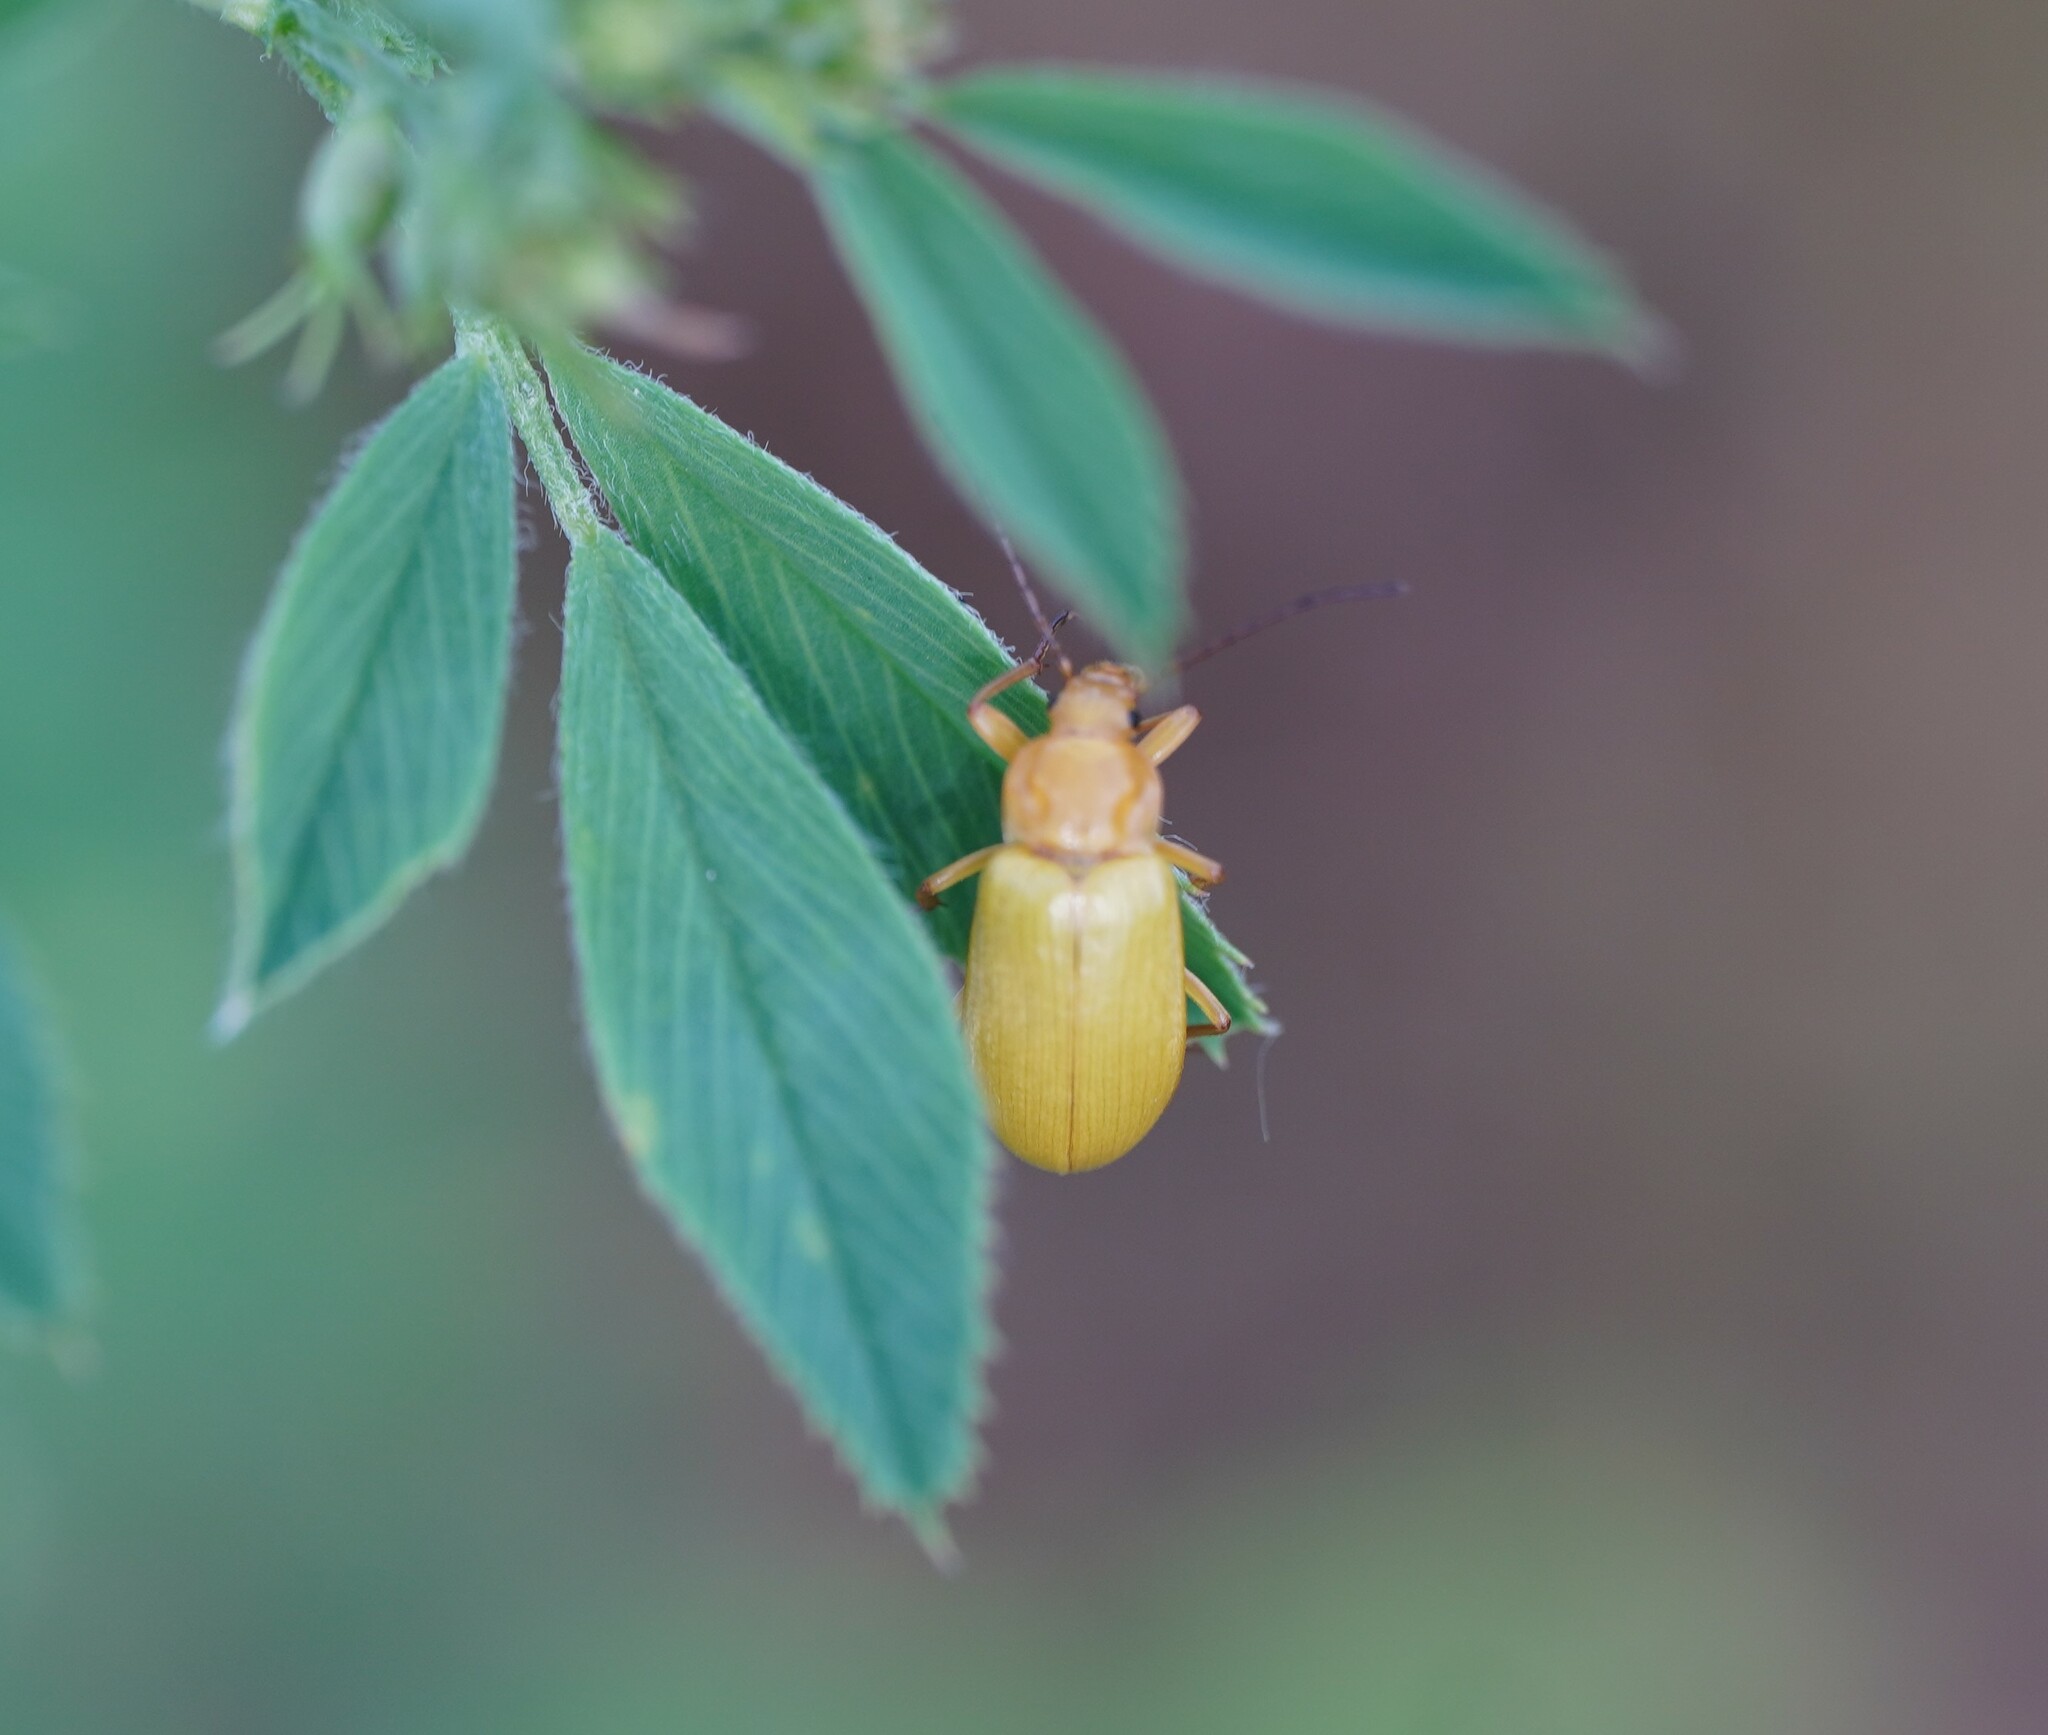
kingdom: Animalia
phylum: Arthropoda
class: Insecta
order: Coleoptera
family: Tenebrionidae
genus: Cteniopus
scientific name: Cteniopus sulphureus
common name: Sulphur beetle
